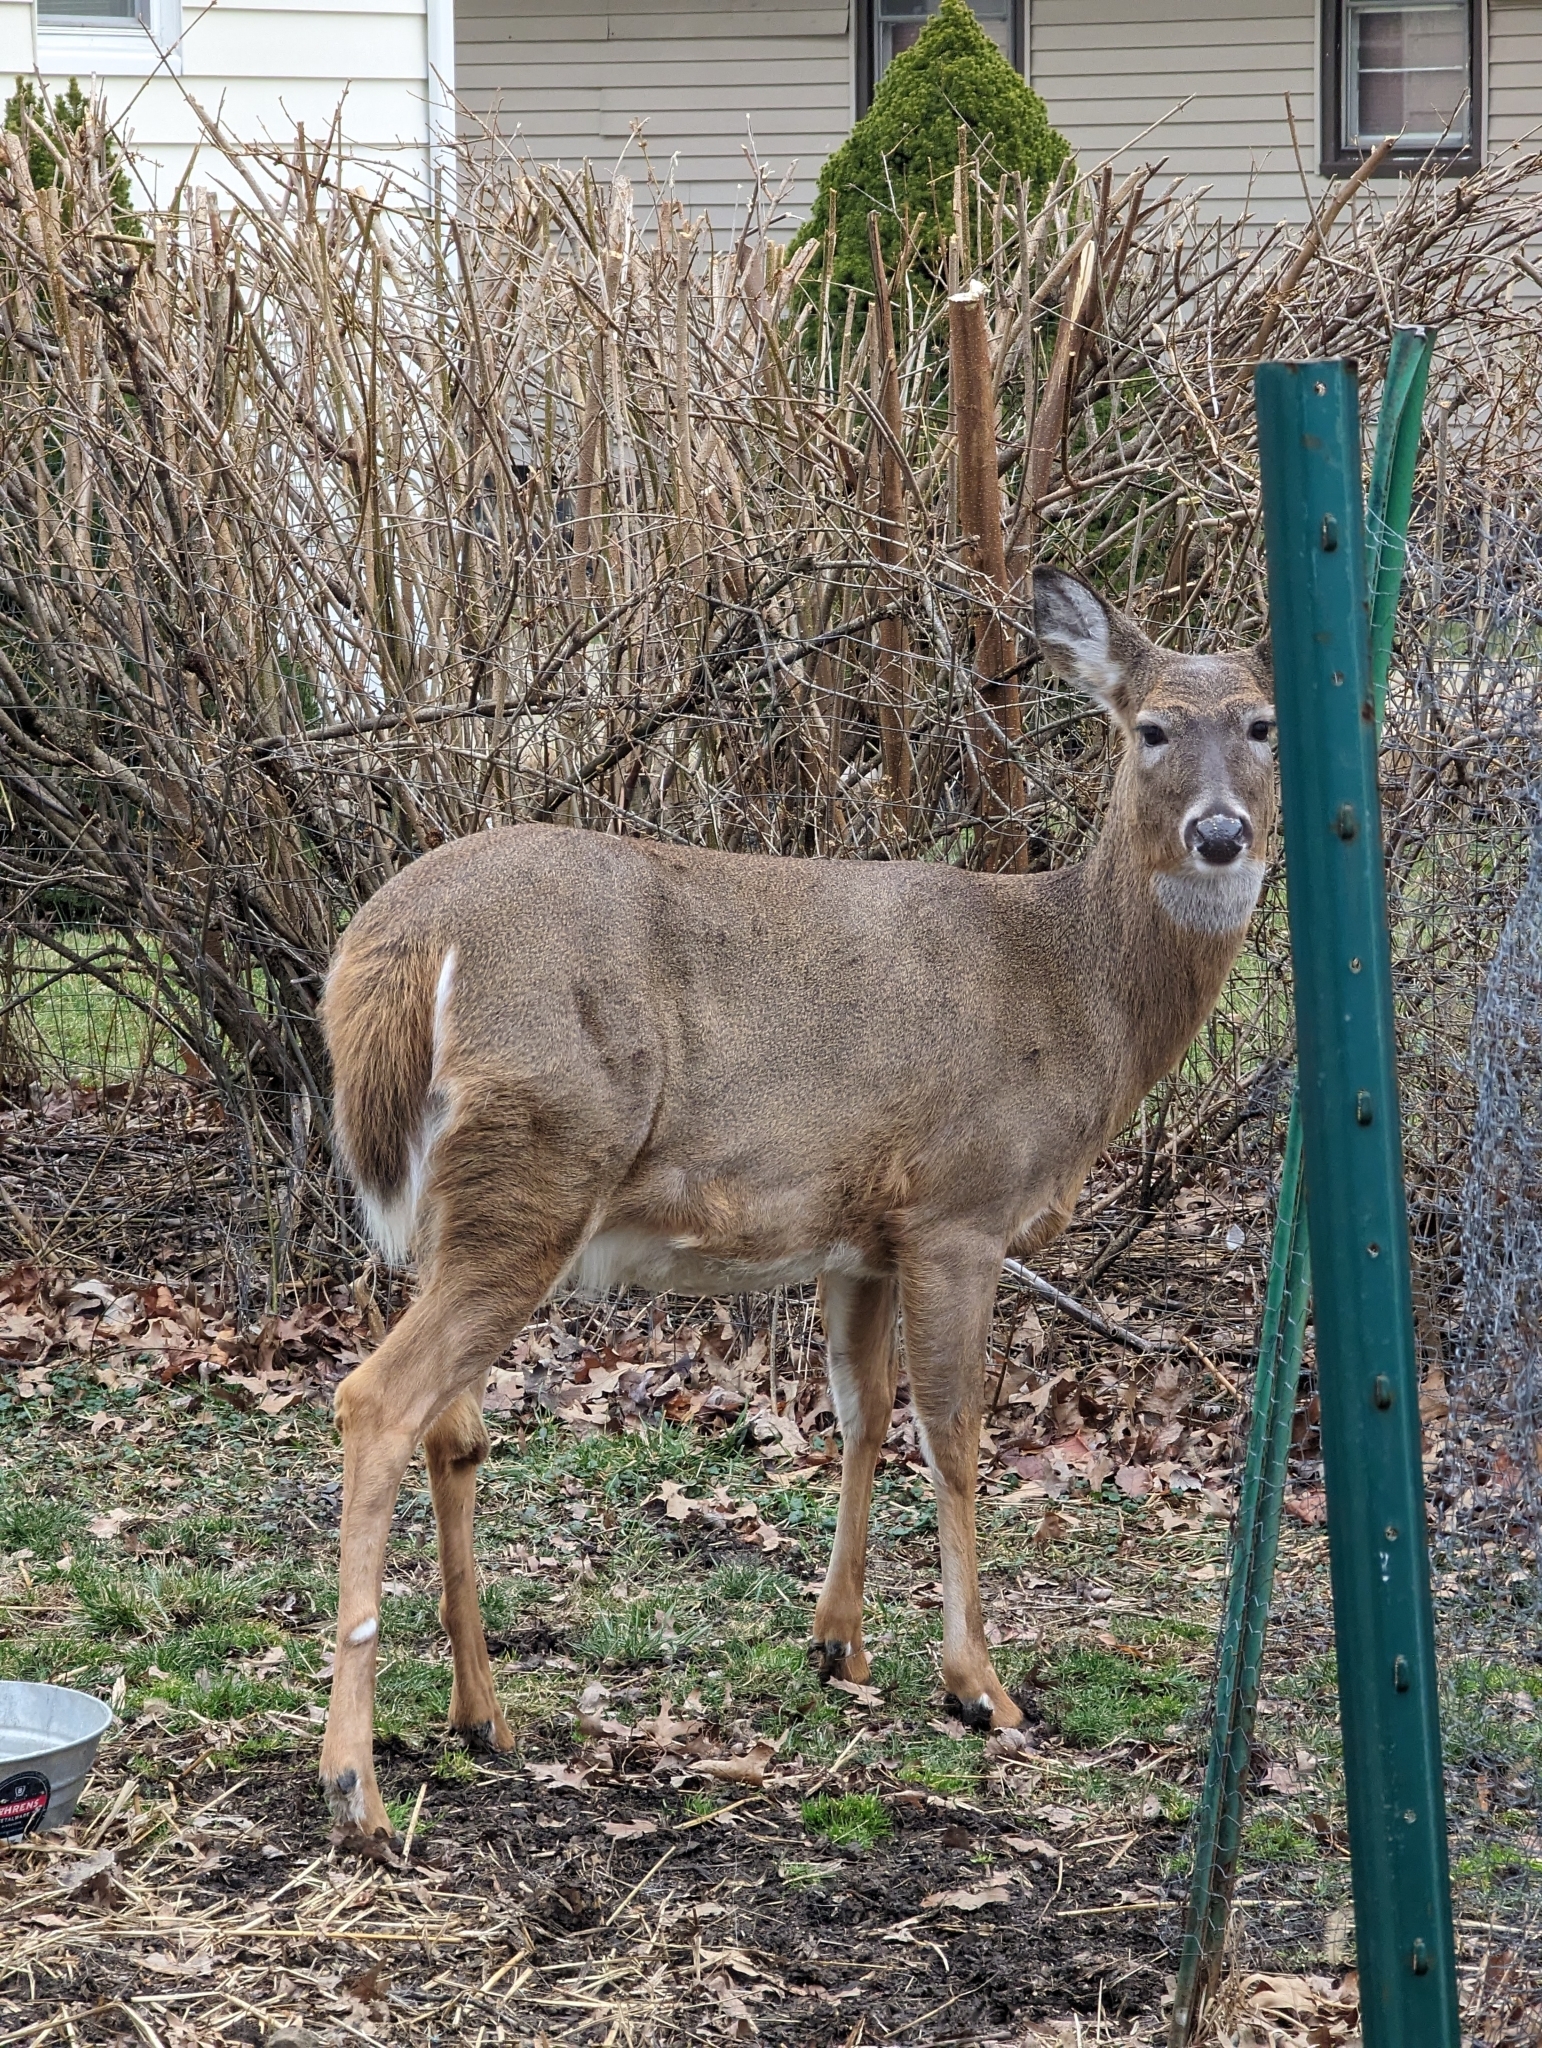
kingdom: Animalia
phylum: Chordata
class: Mammalia
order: Artiodactyla
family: Cervidae
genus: Odocoileus
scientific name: Odocoileus virginianus
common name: White-tailed deer
